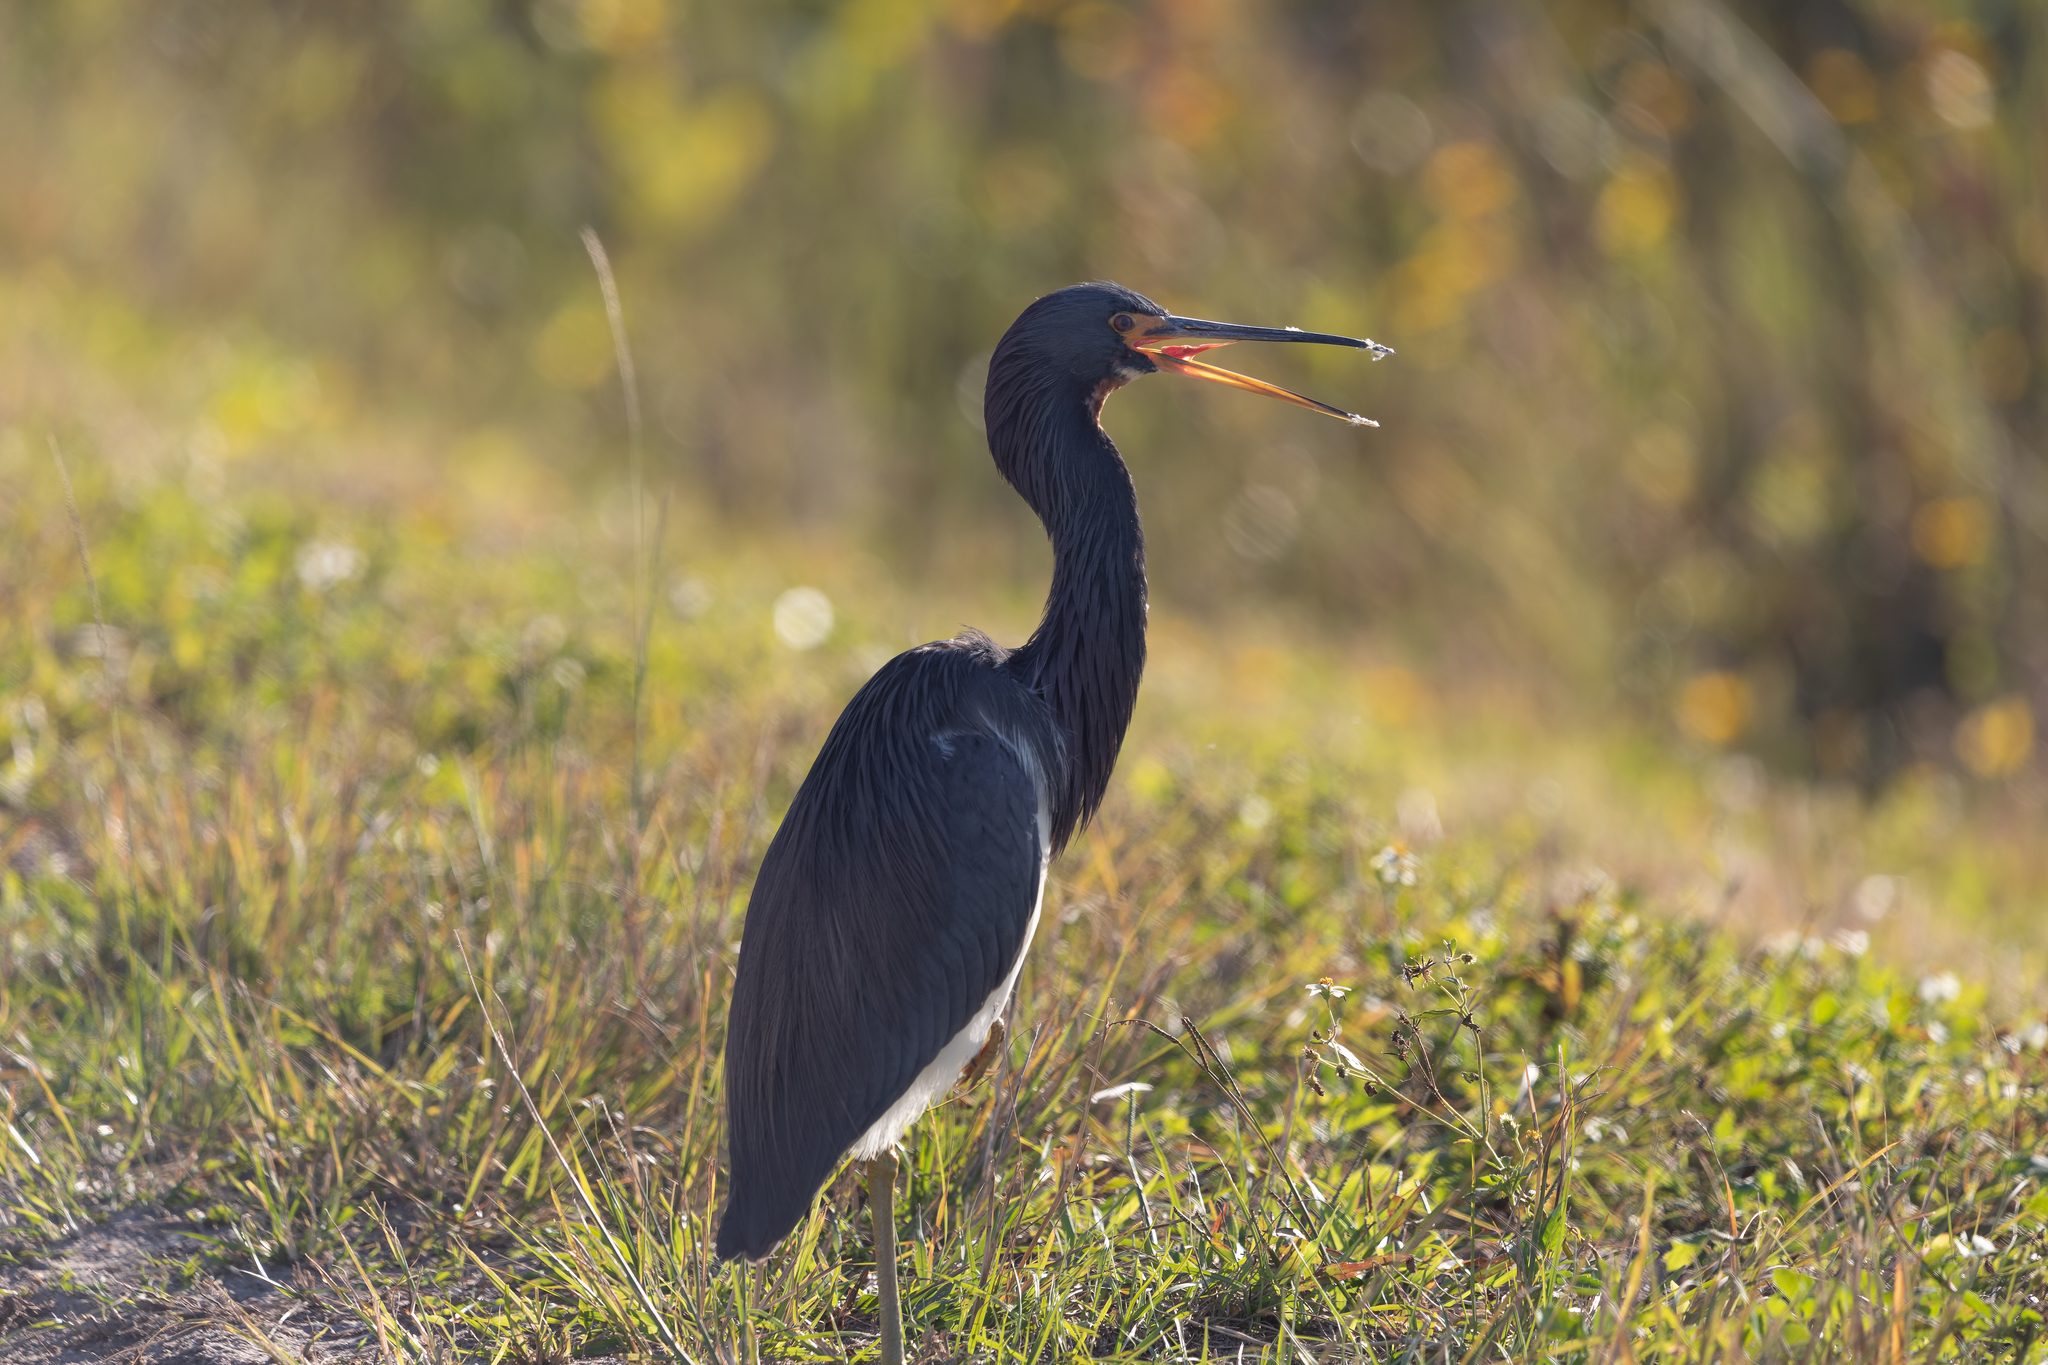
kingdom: Animalia
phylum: Chordata
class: Aves
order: Pelecaniformes
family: Ardeidae
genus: Egretta
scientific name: Egretta tricolor
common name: Tricolored heron
